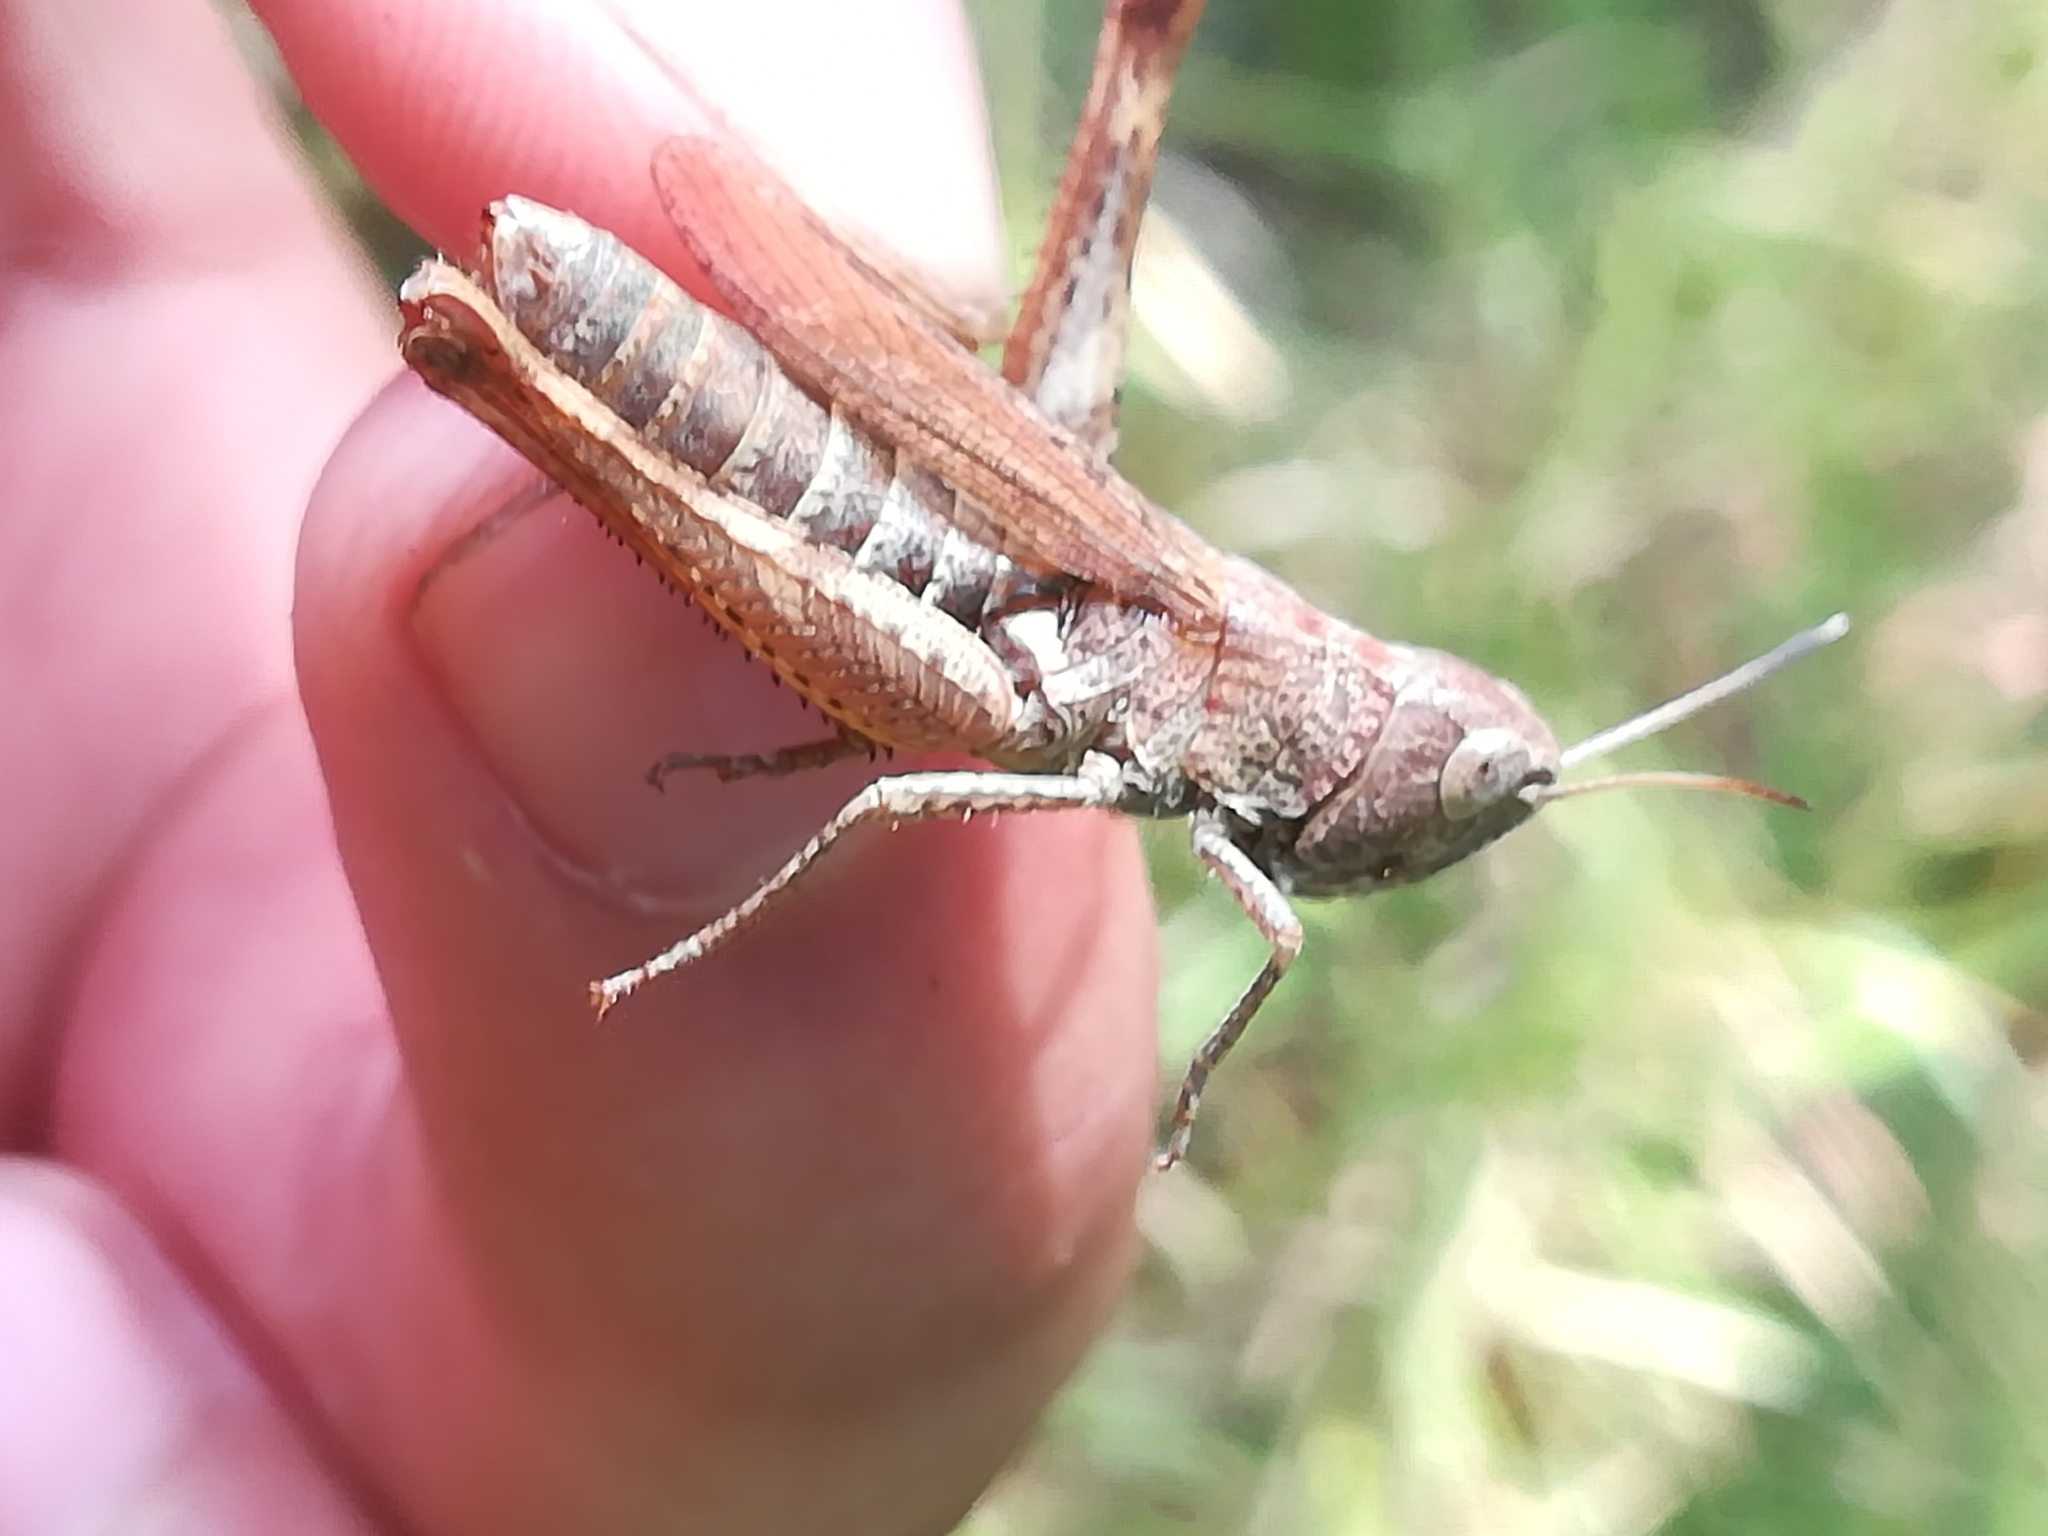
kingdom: Animalia
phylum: Arthropoda
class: Insecta
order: Orthoptera
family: Acrididae
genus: Gomphocerippus
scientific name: Gomphocerippus rufus
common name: Rufous grasshopper
